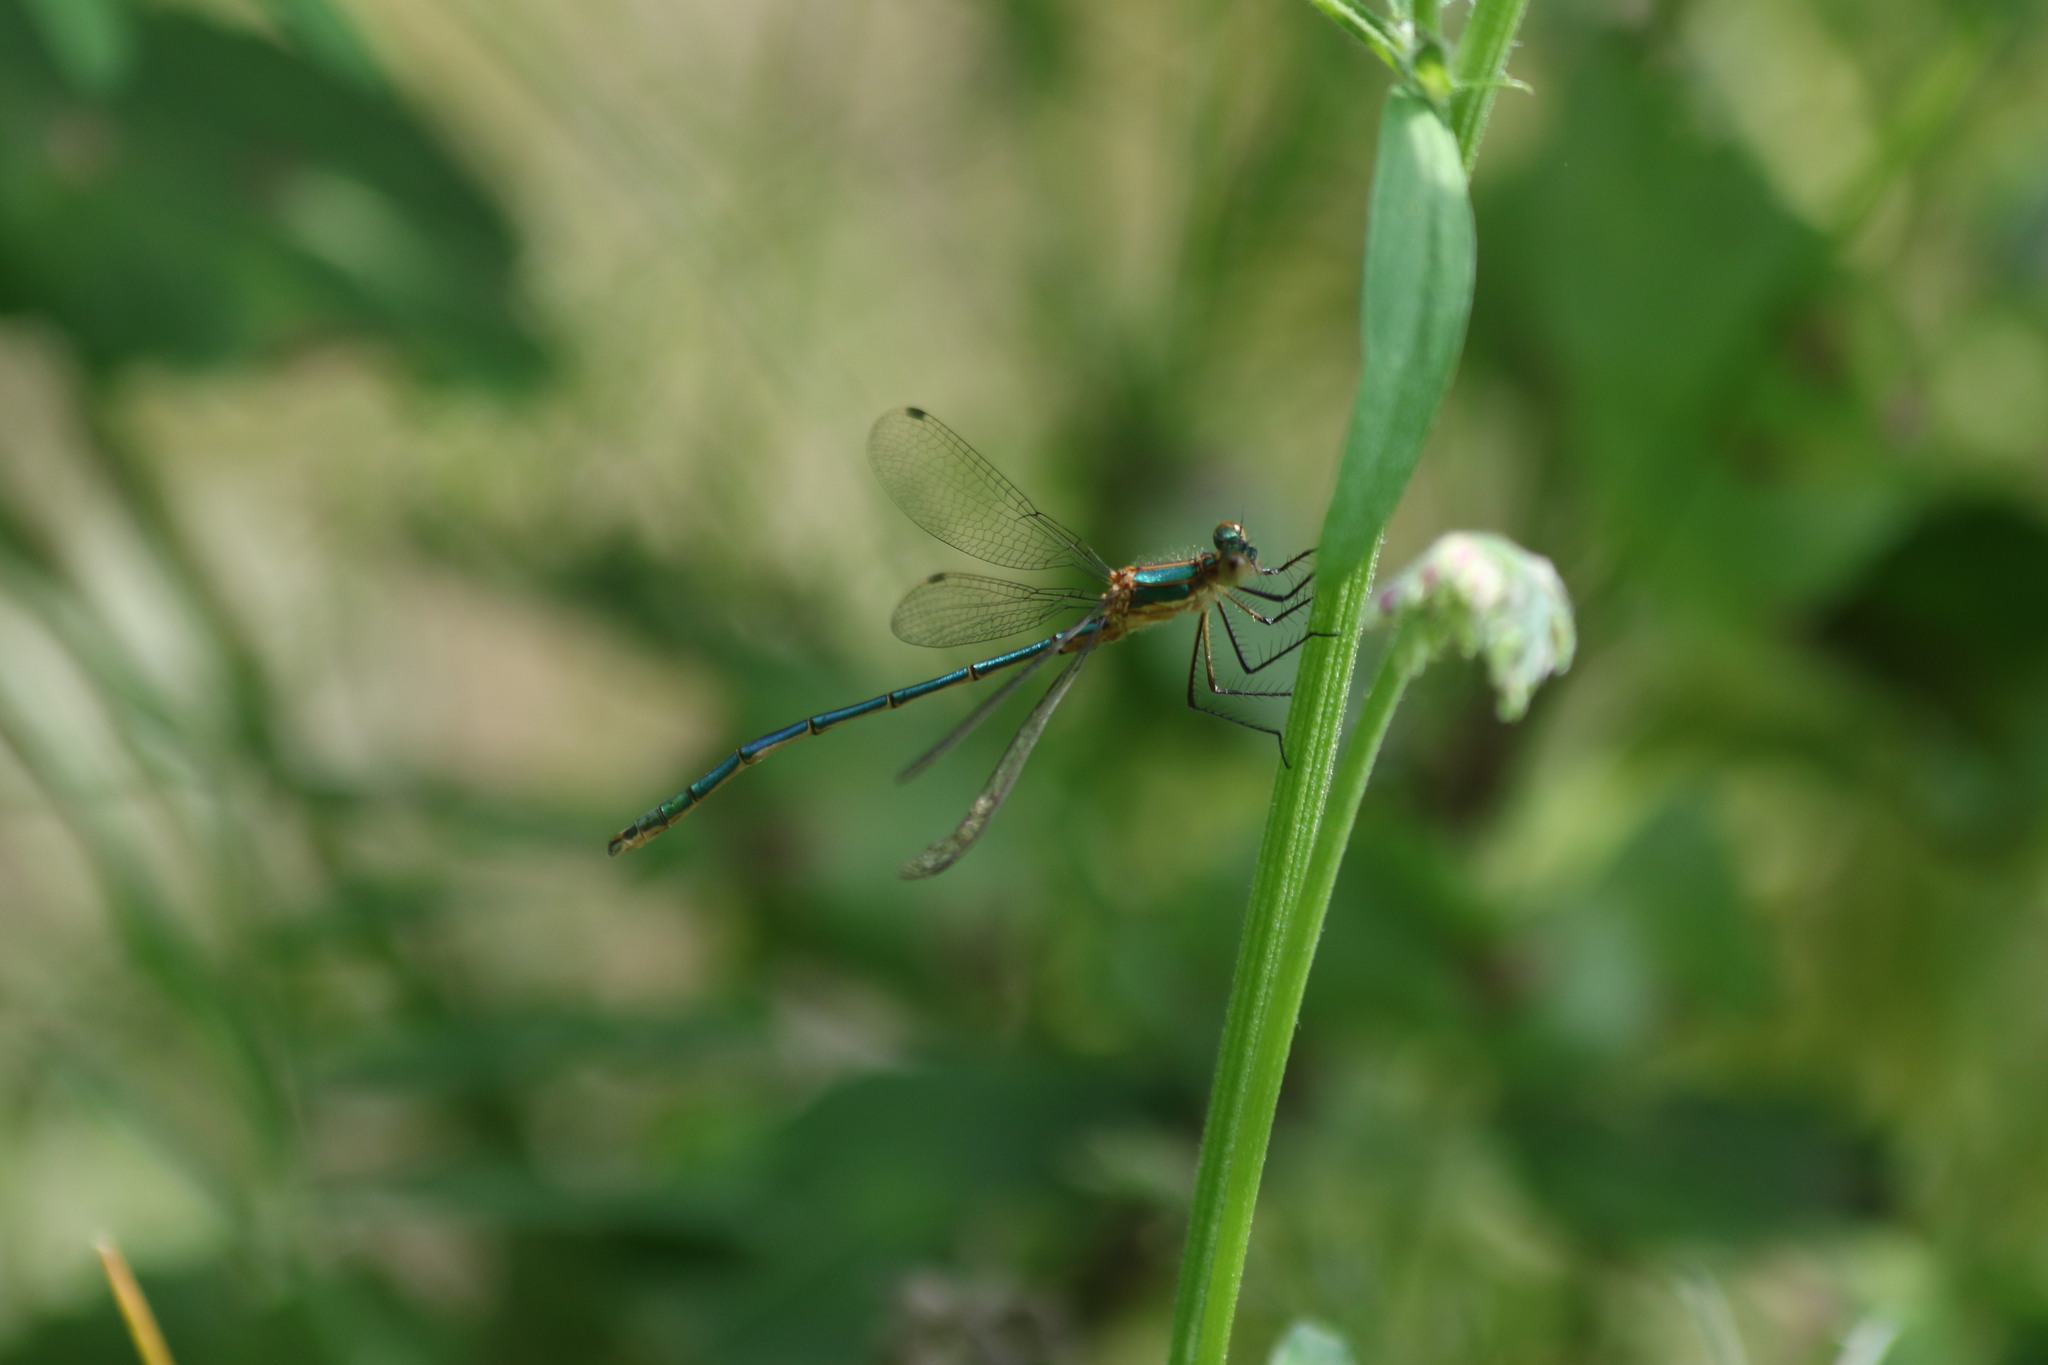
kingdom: Animalia
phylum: Arthropoda
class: Insecta
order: Odonata
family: Lestidae
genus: Lestes
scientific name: Lestes sponsa
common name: Common spreadwing
